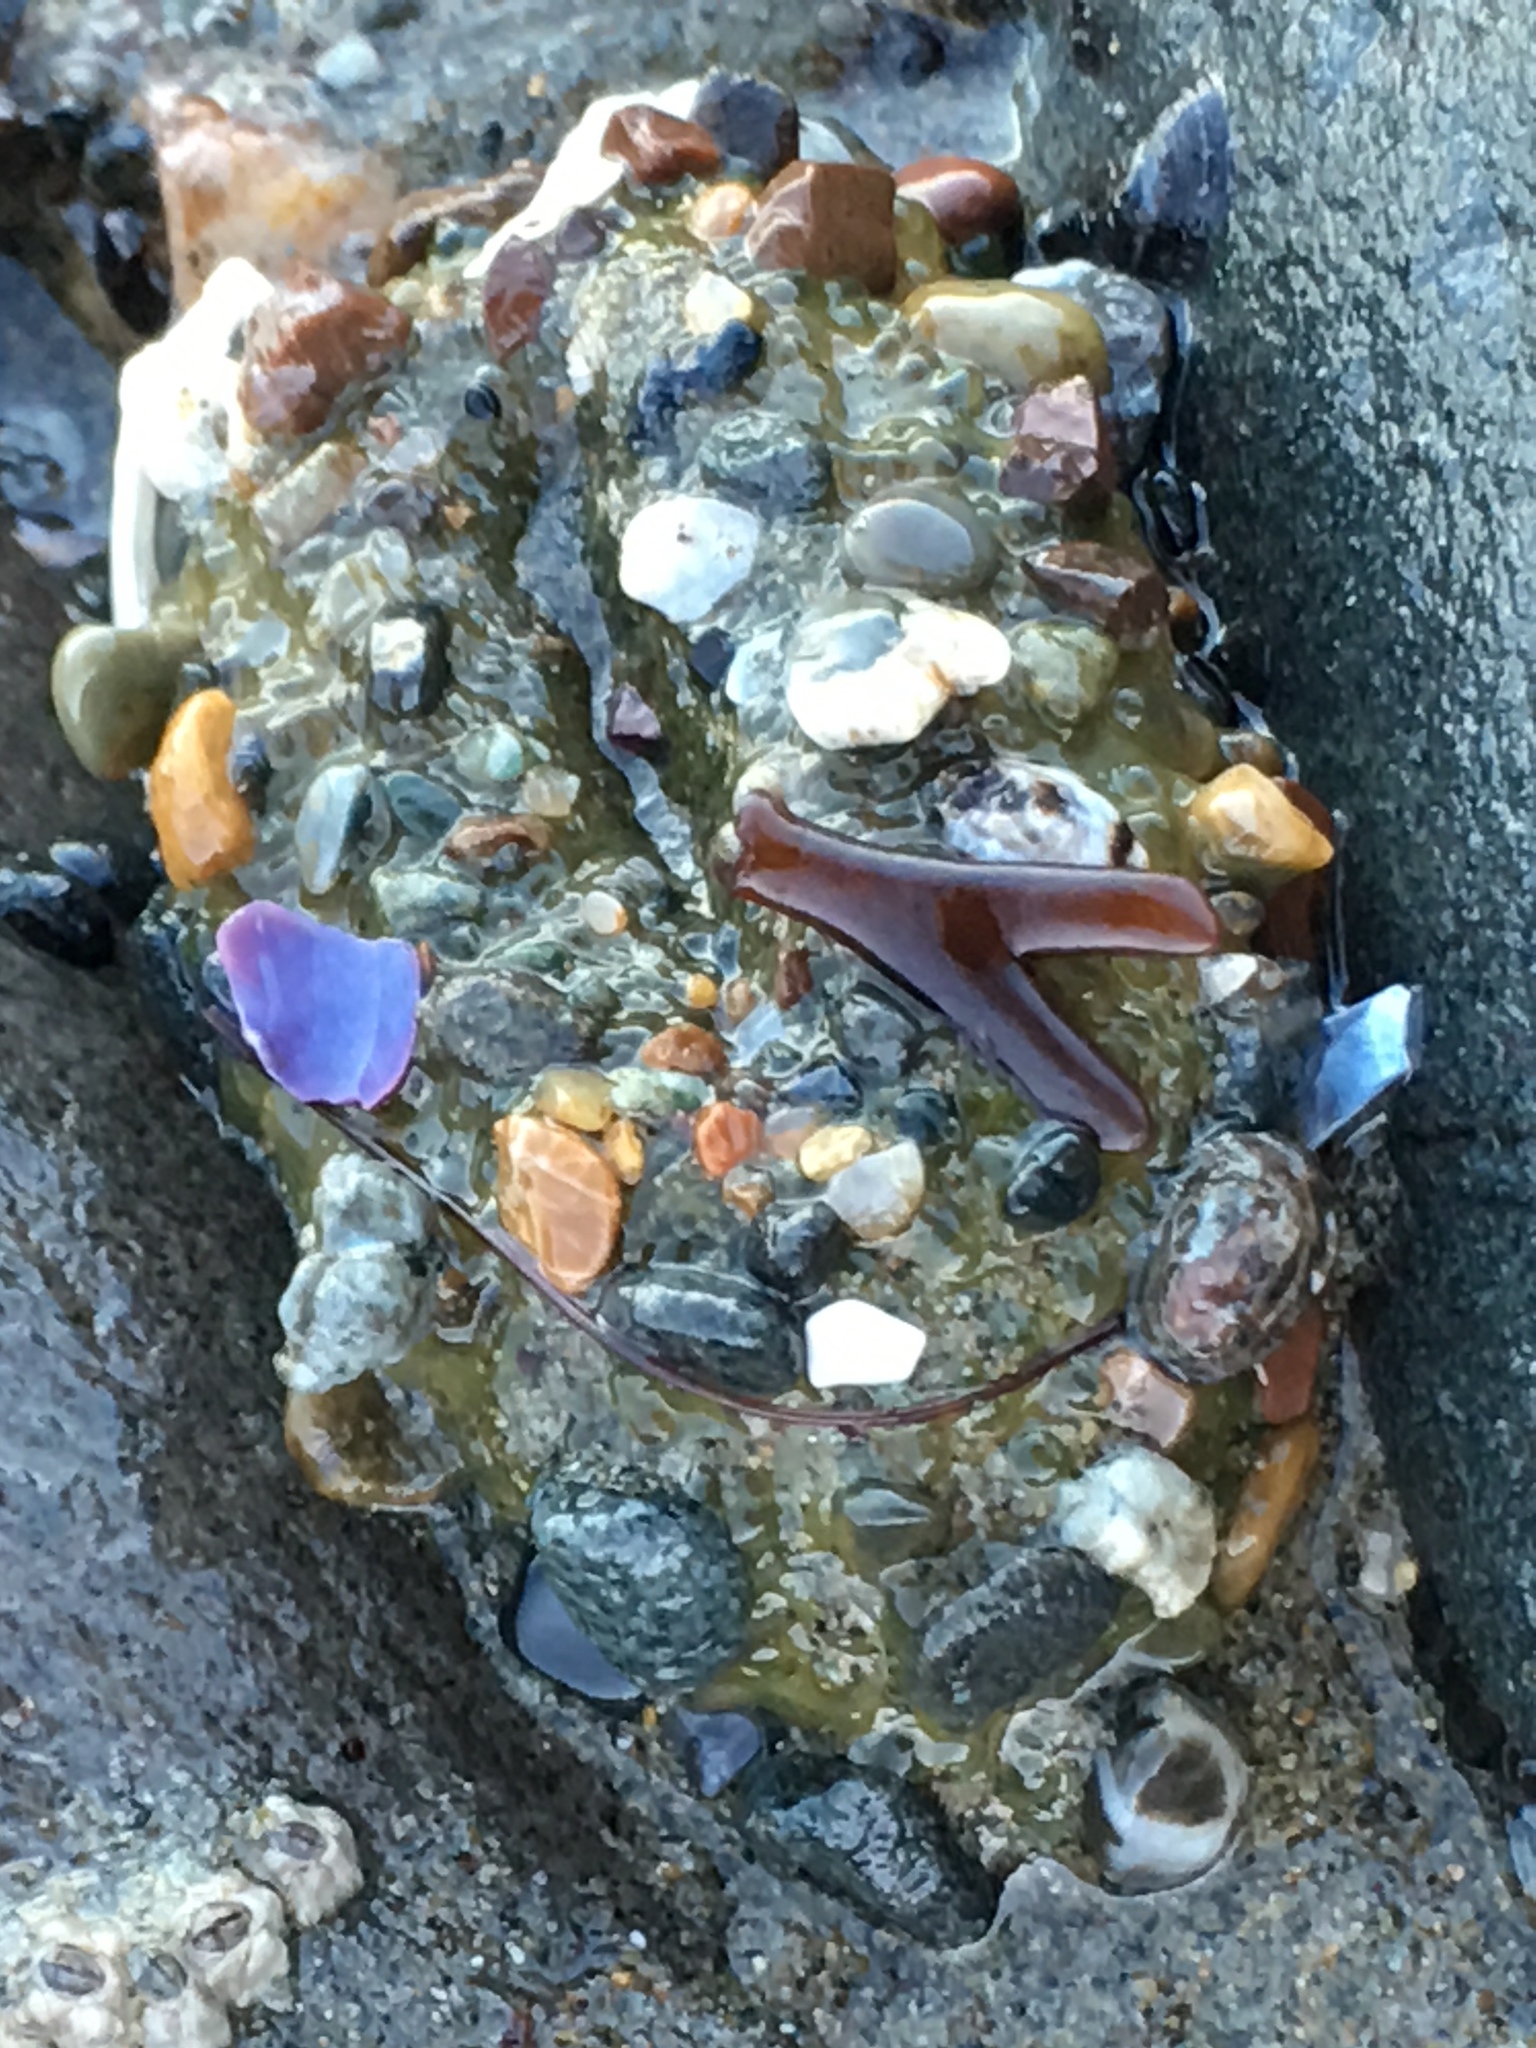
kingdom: Animalia
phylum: Cnidaria
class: Anthozoa
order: Actiniaria
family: Actiniidae
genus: Anthopleura
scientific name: Anthopleura elegantissima
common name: Clonal anemone
